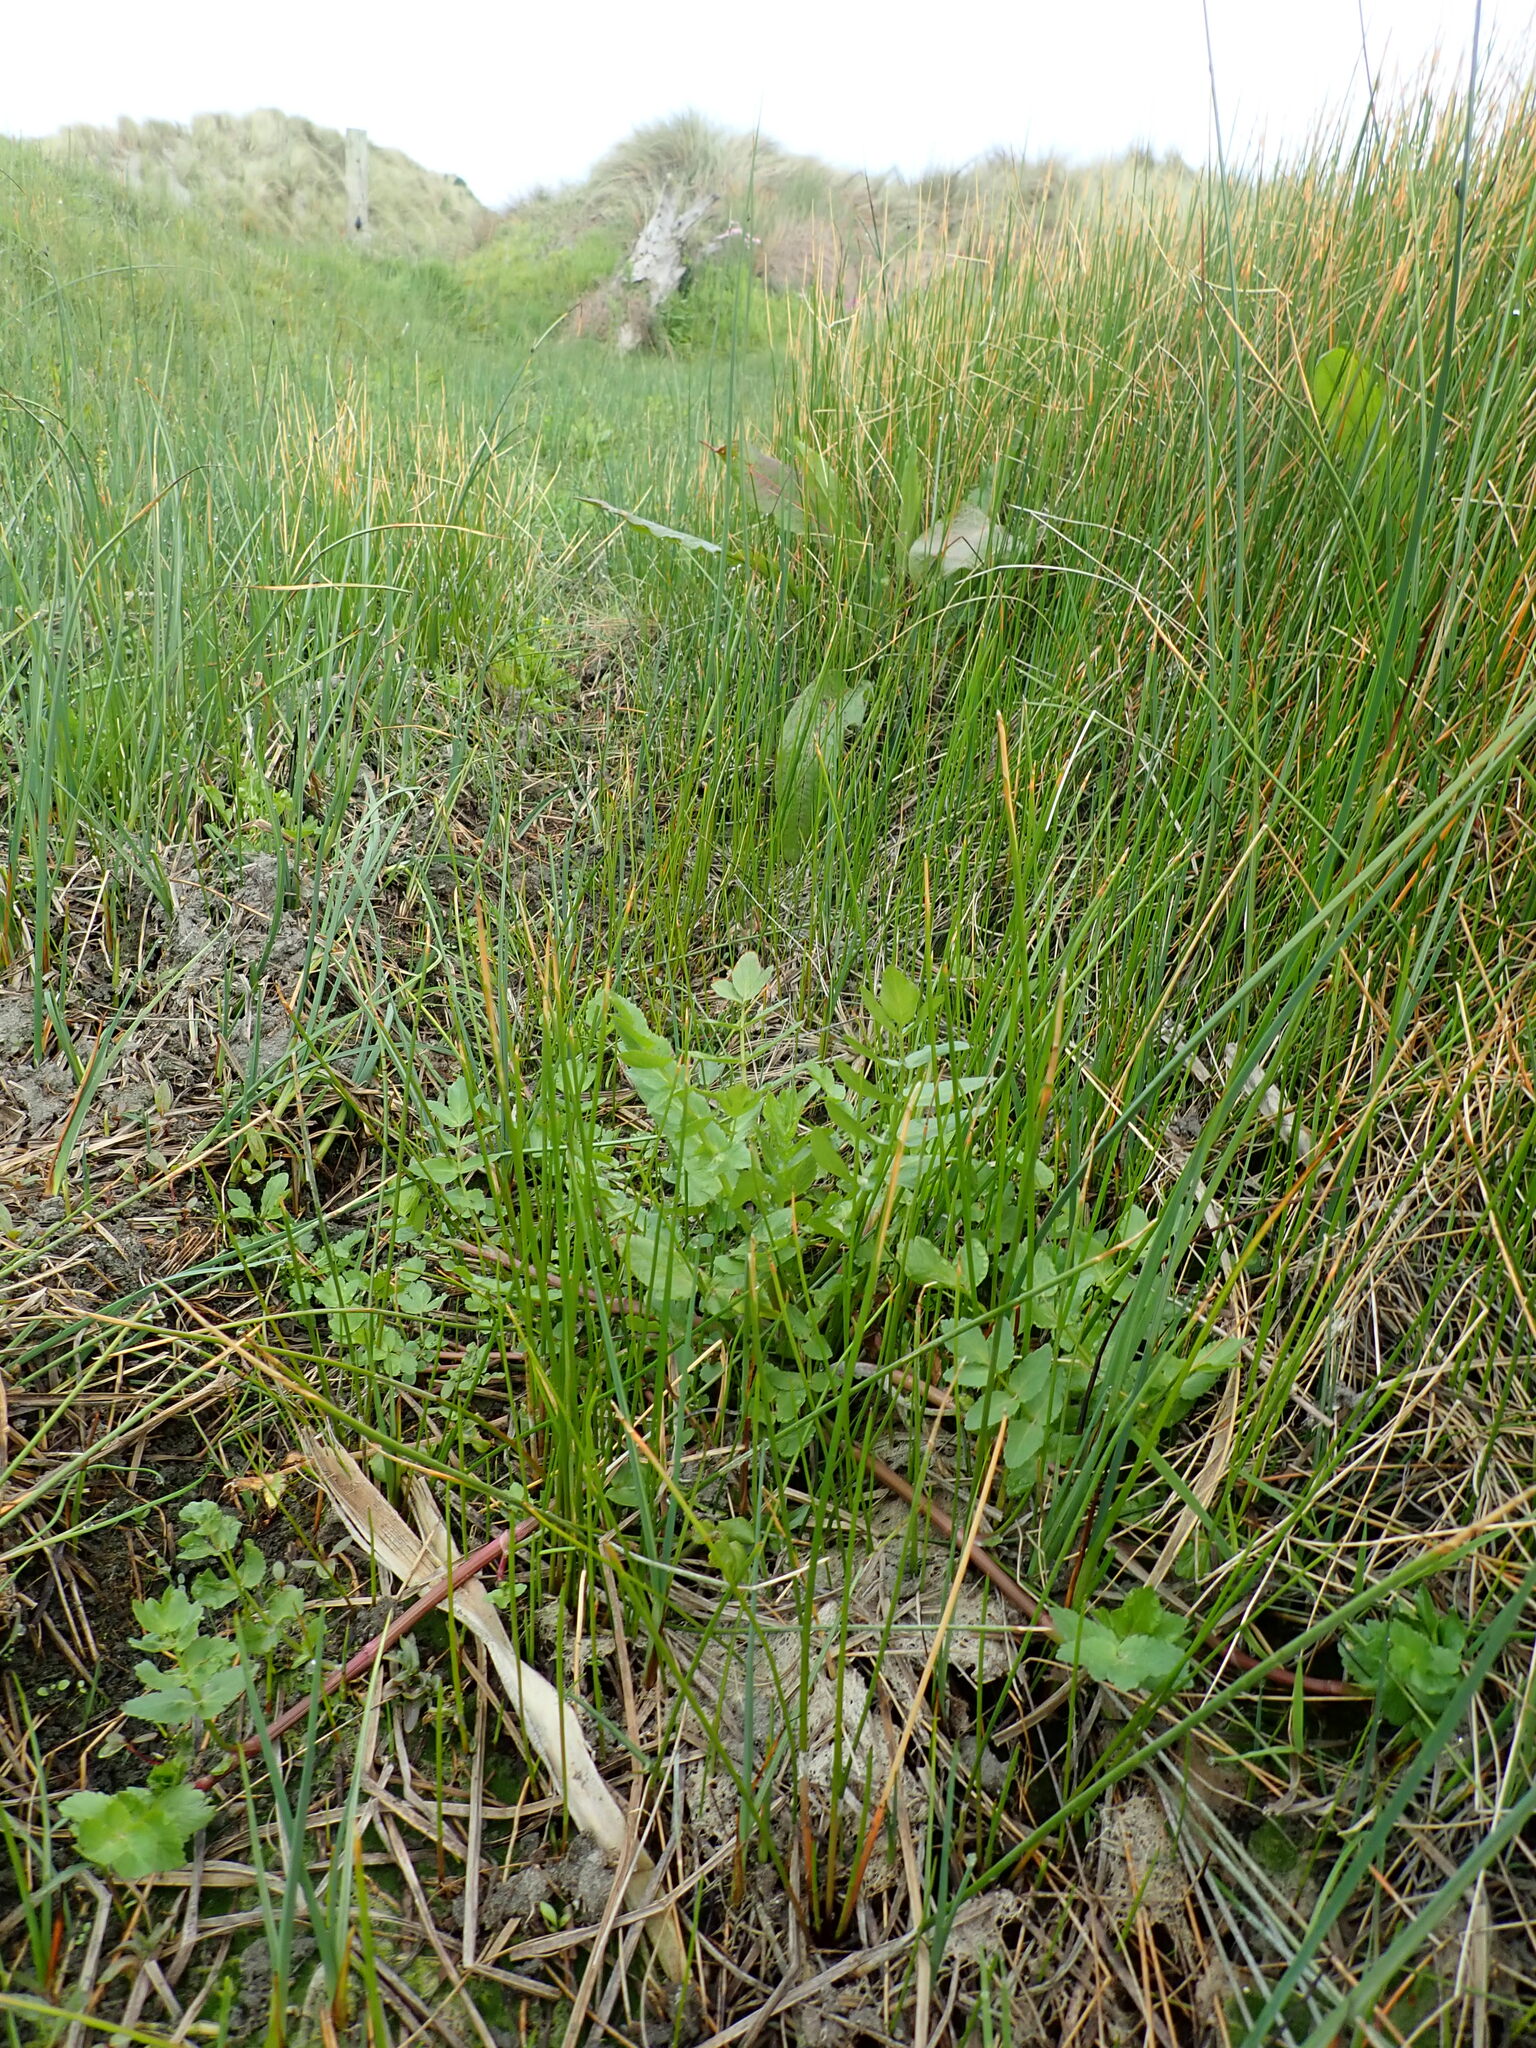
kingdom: Plantae
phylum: Tracheophyta
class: Magnoliopsida
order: Apiales
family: Apiaceae
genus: Helosciadium
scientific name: Helosciadium nodiflorum
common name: Fool's-watercress
